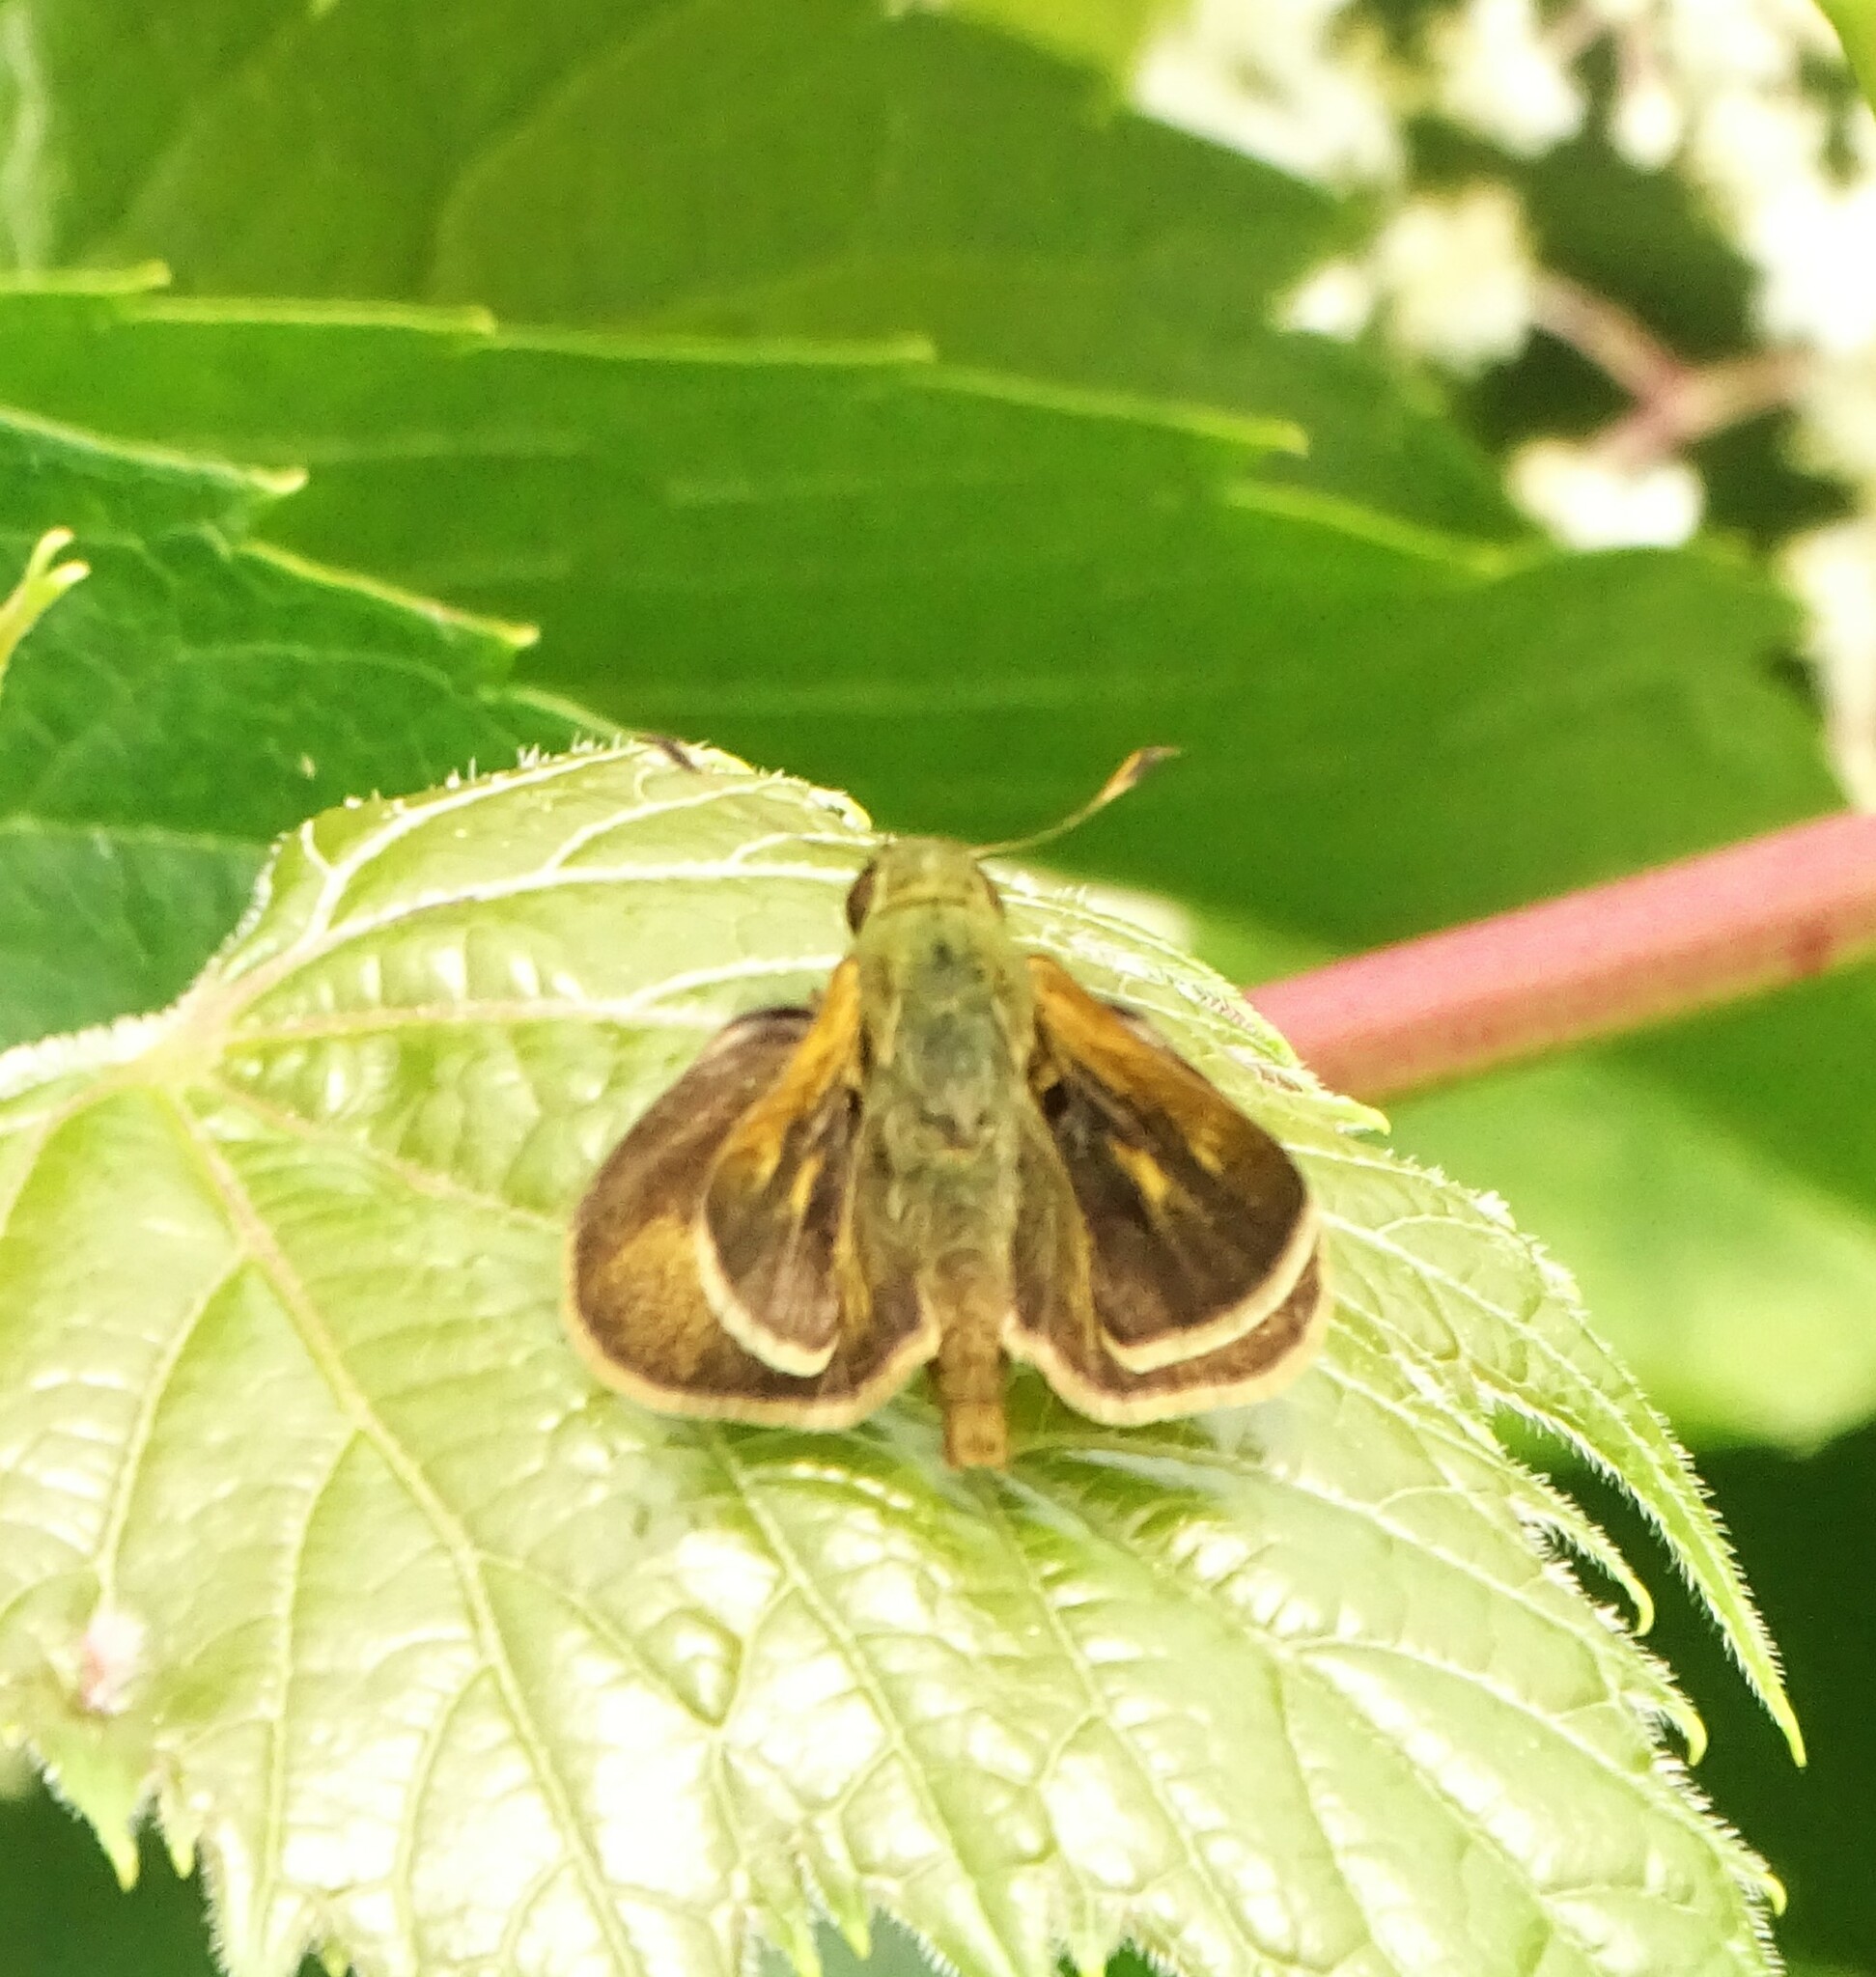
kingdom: Animalia
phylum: Arthropoda
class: Insecta
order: Lepidoptera
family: Hesperiidae
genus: Polites
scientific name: Polites themistocles
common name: Tawny-edged skipper
